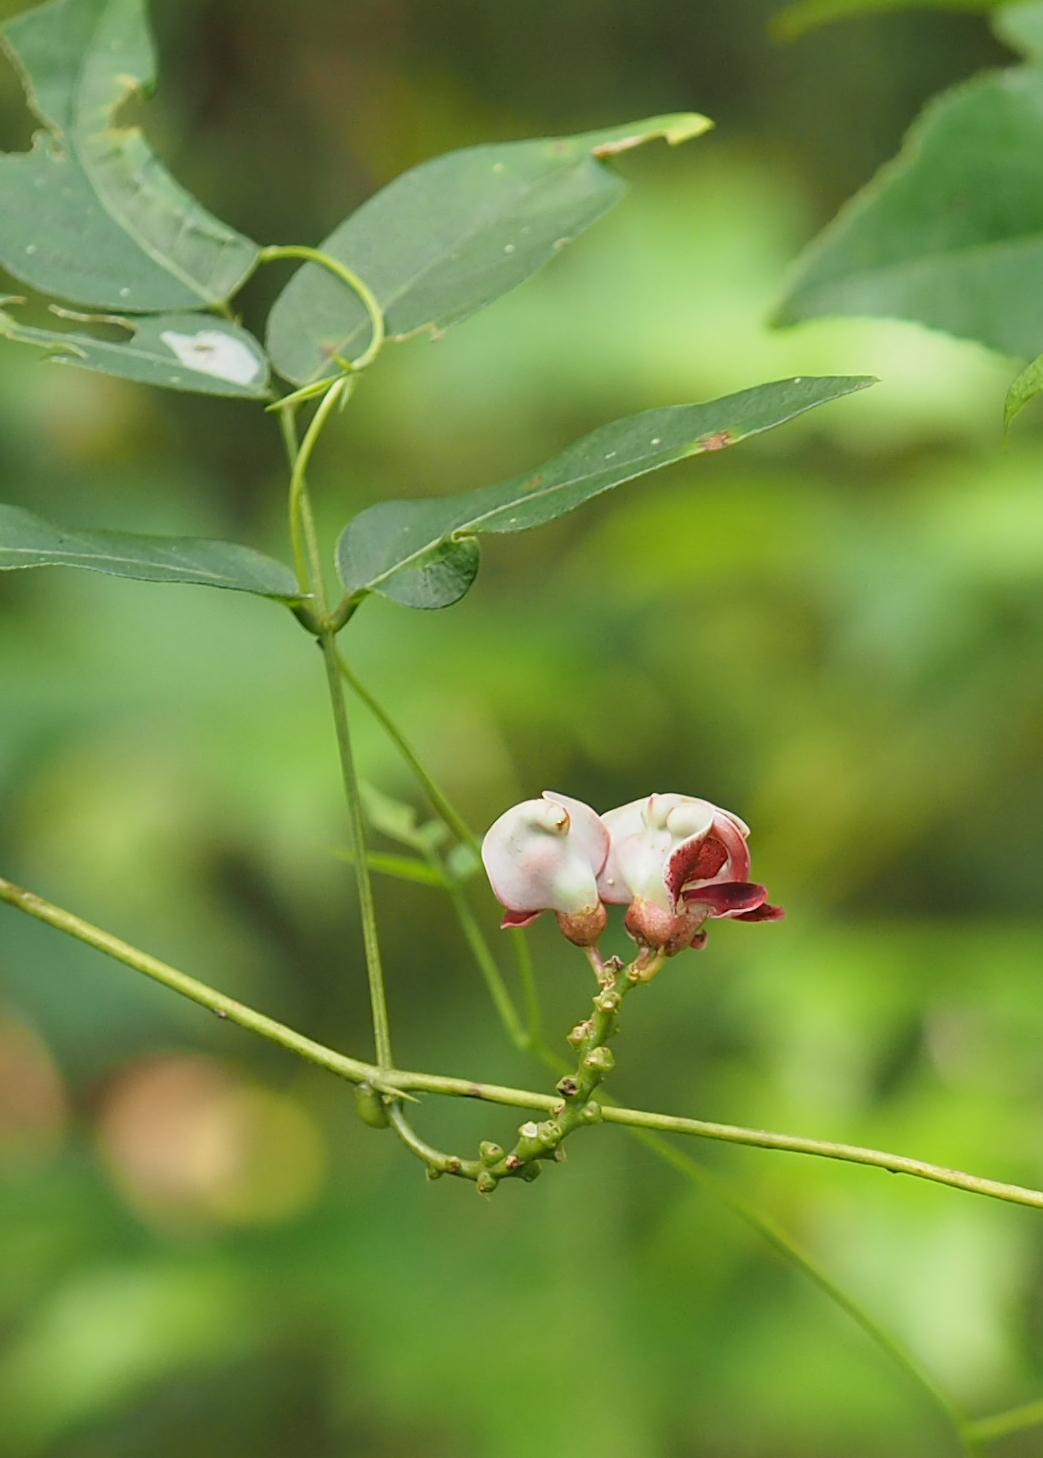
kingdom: Plantae
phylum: Tracheophyta
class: Magnoliopsida
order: Fabales
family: Fabaceae
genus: Apios
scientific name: Apios americana
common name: American potato-bean
